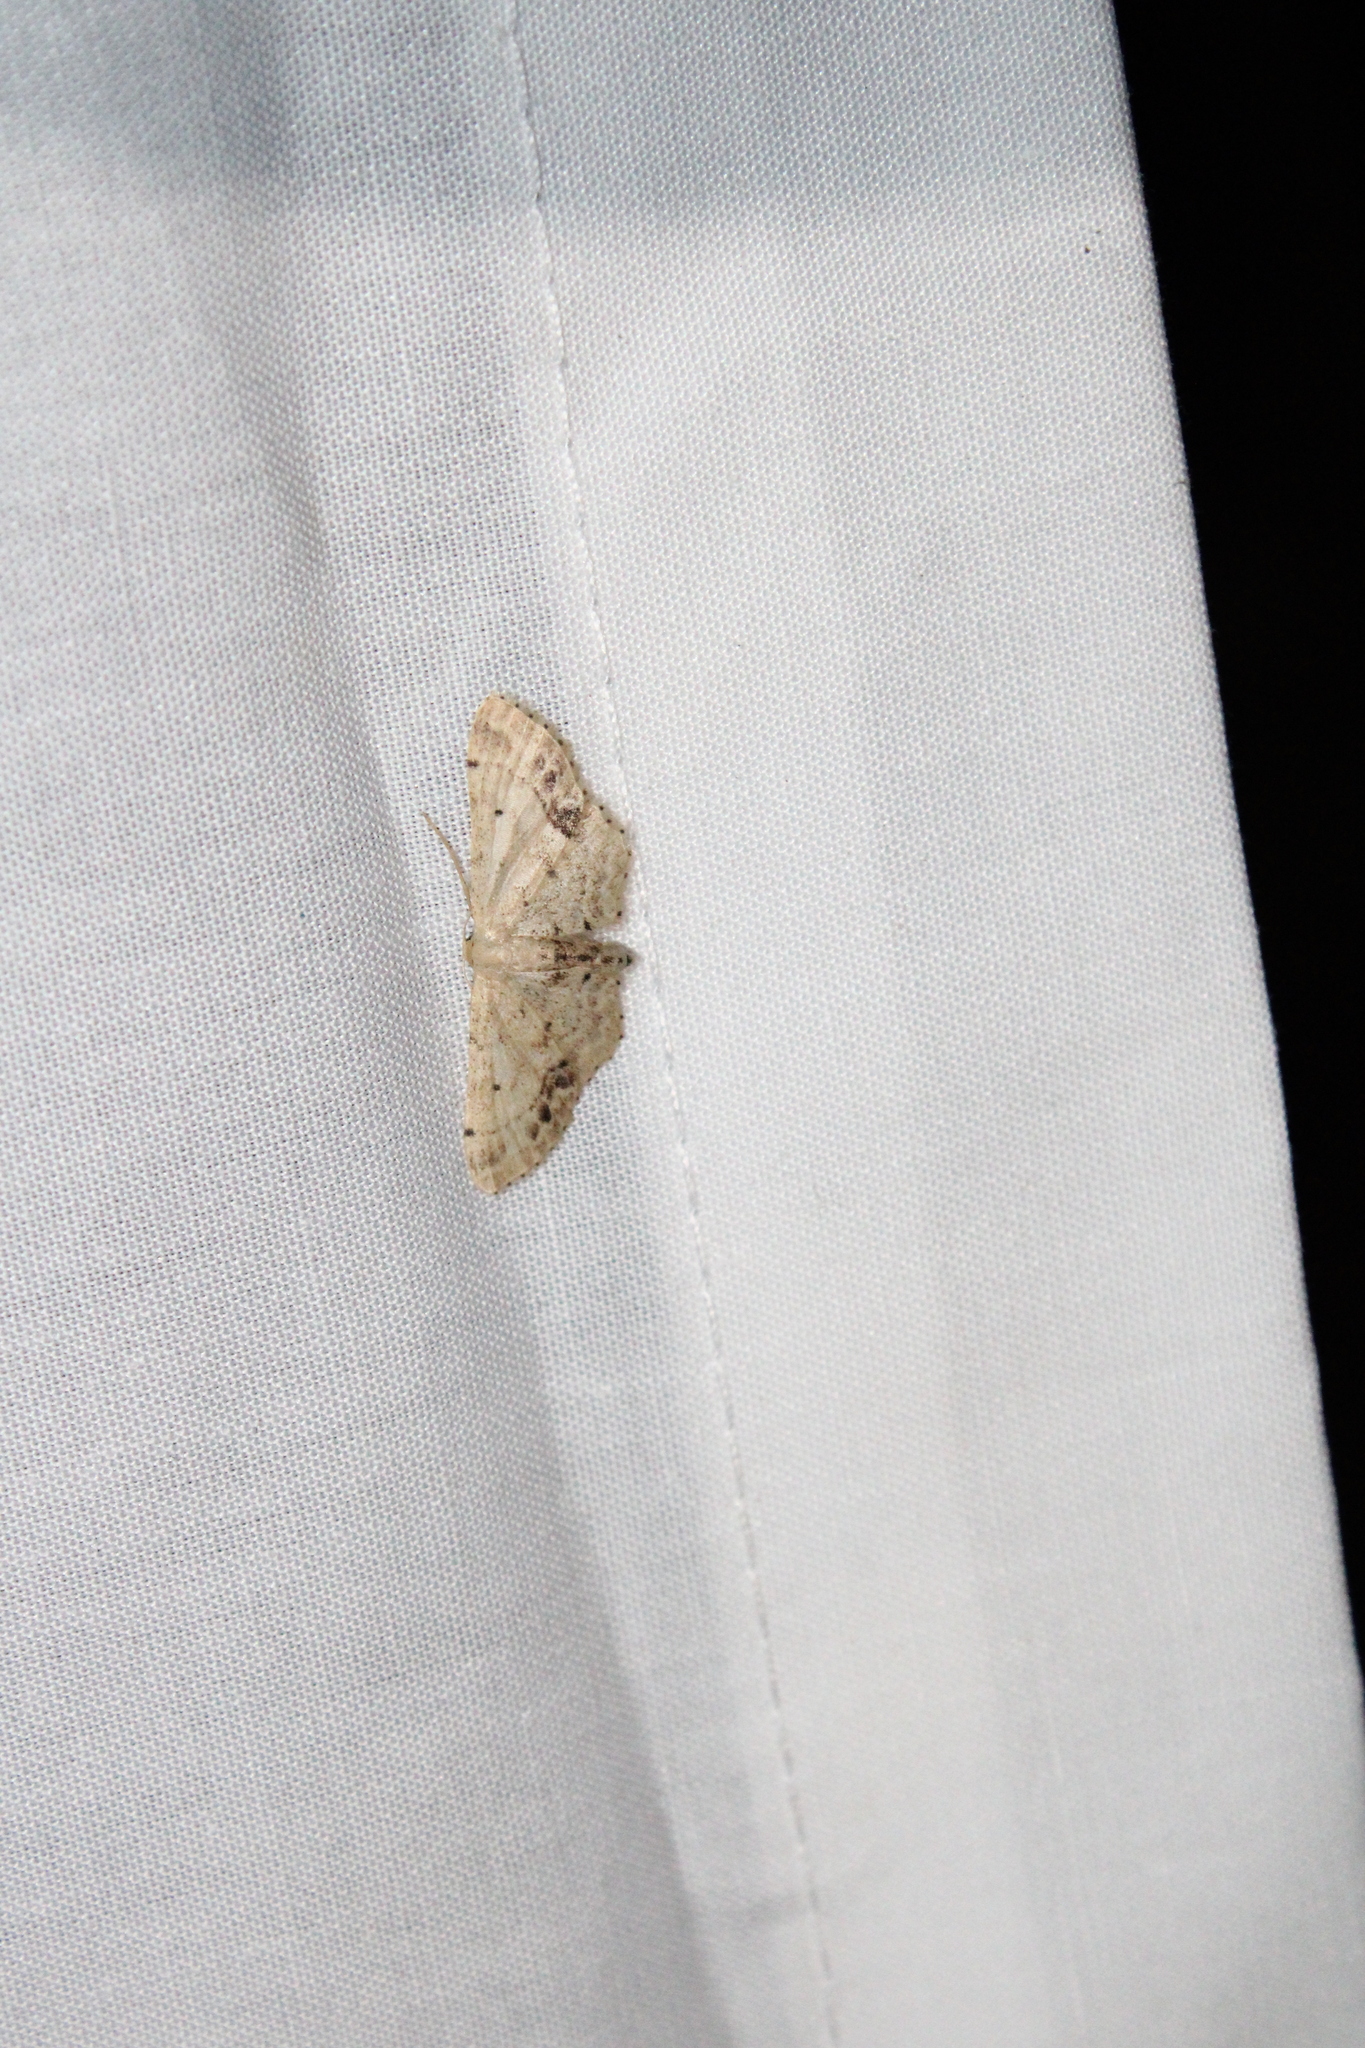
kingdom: Animalia
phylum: Arthropoda
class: Insecta
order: Lepidoptera
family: Geometridae
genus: Idaea
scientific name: Idaea dimidiata
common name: Single-dotted wave
